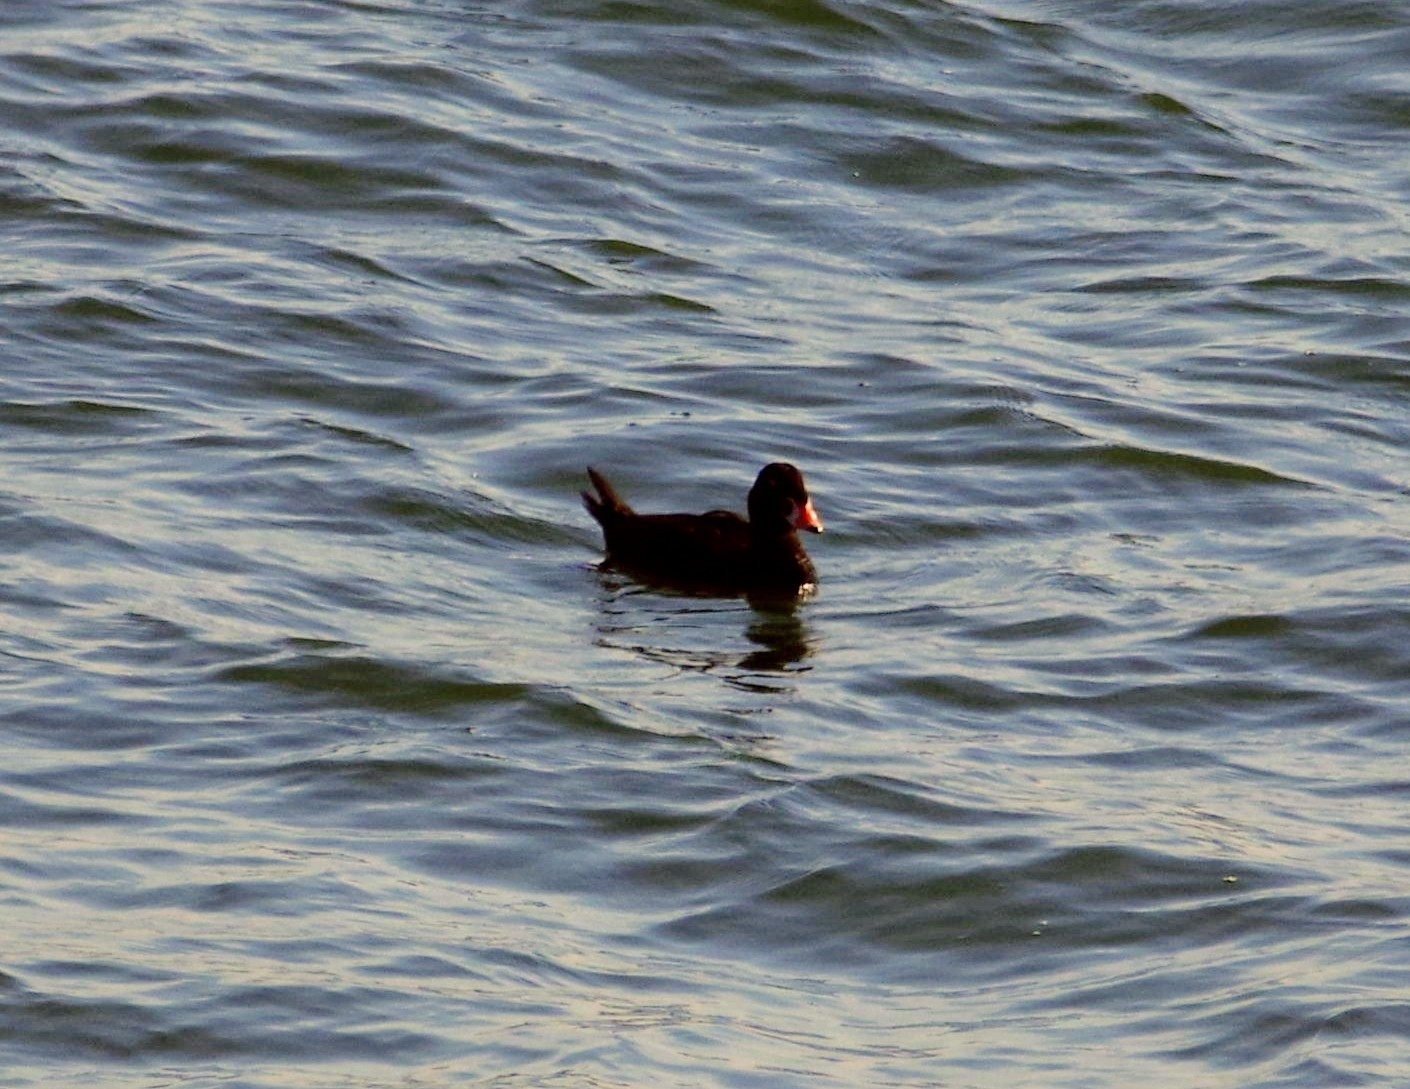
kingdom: Animalia
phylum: Chordata
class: Aves
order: Anseriformes
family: Anatidae
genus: Melanitta
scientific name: Melanitta perspicillata
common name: Surf scoter
